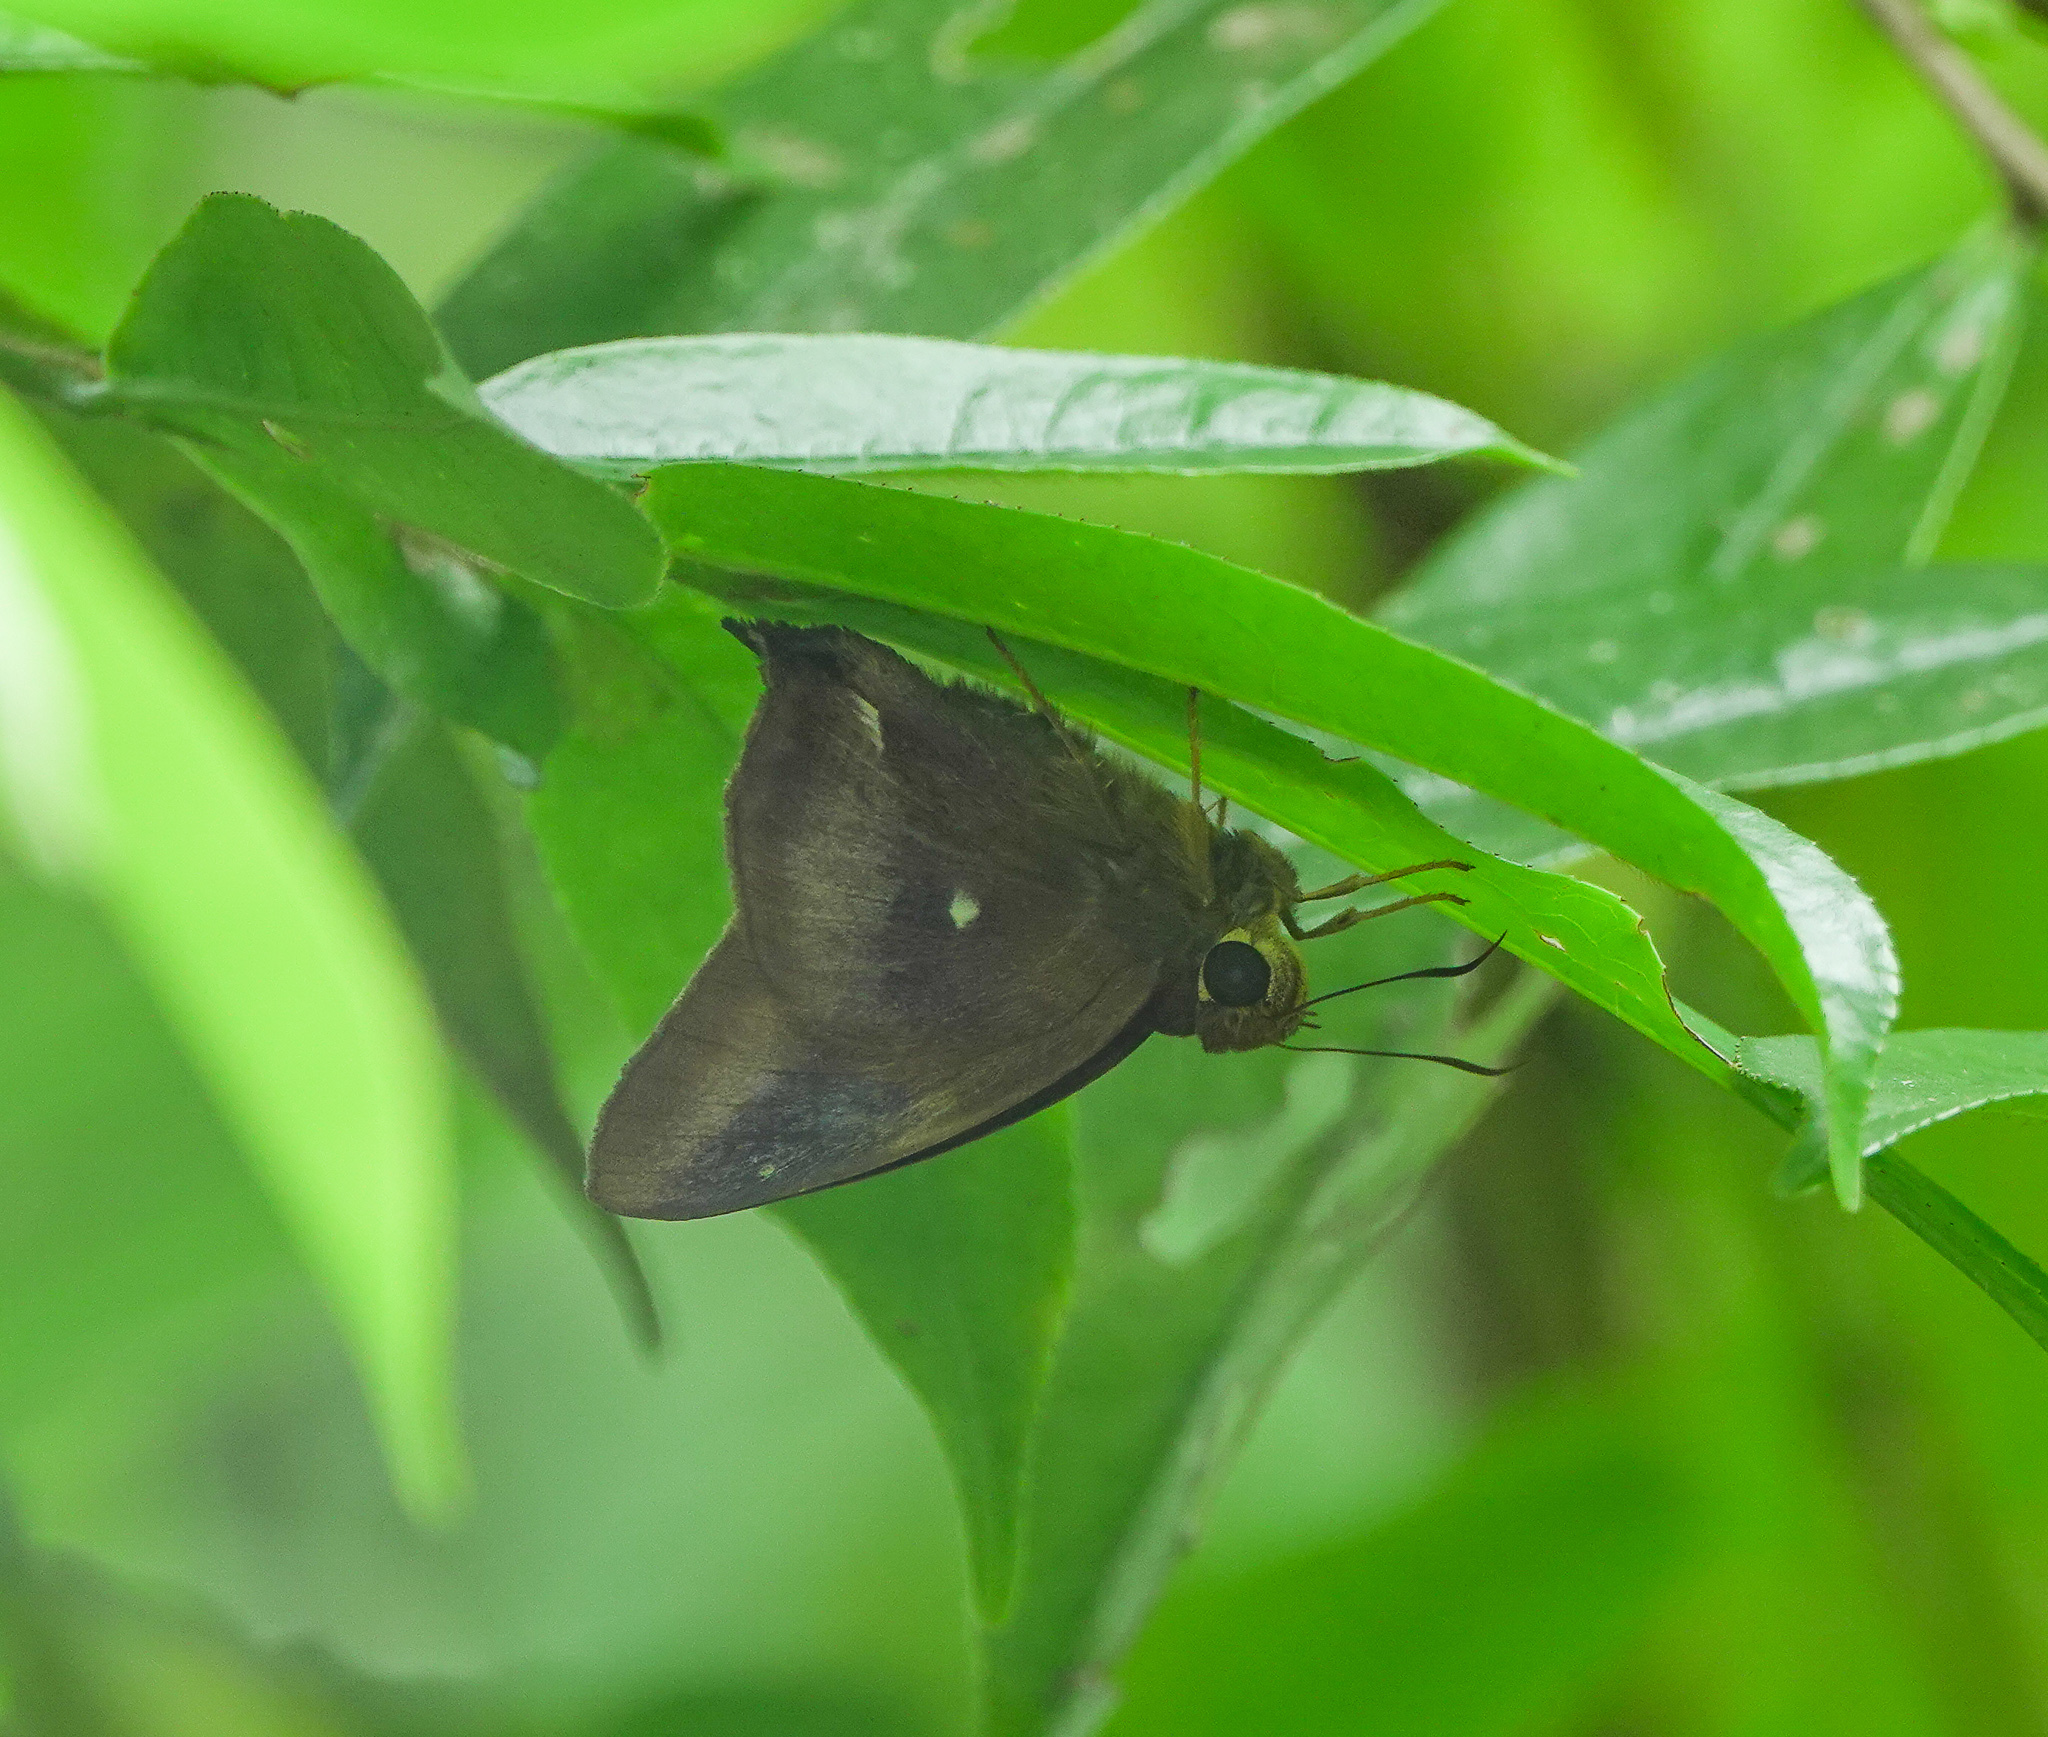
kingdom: Animalia
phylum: Arthropoda
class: Insecta
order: Lepidoptera
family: Hesperiidae
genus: Hasora
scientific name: Hasora badra
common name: Common awl
